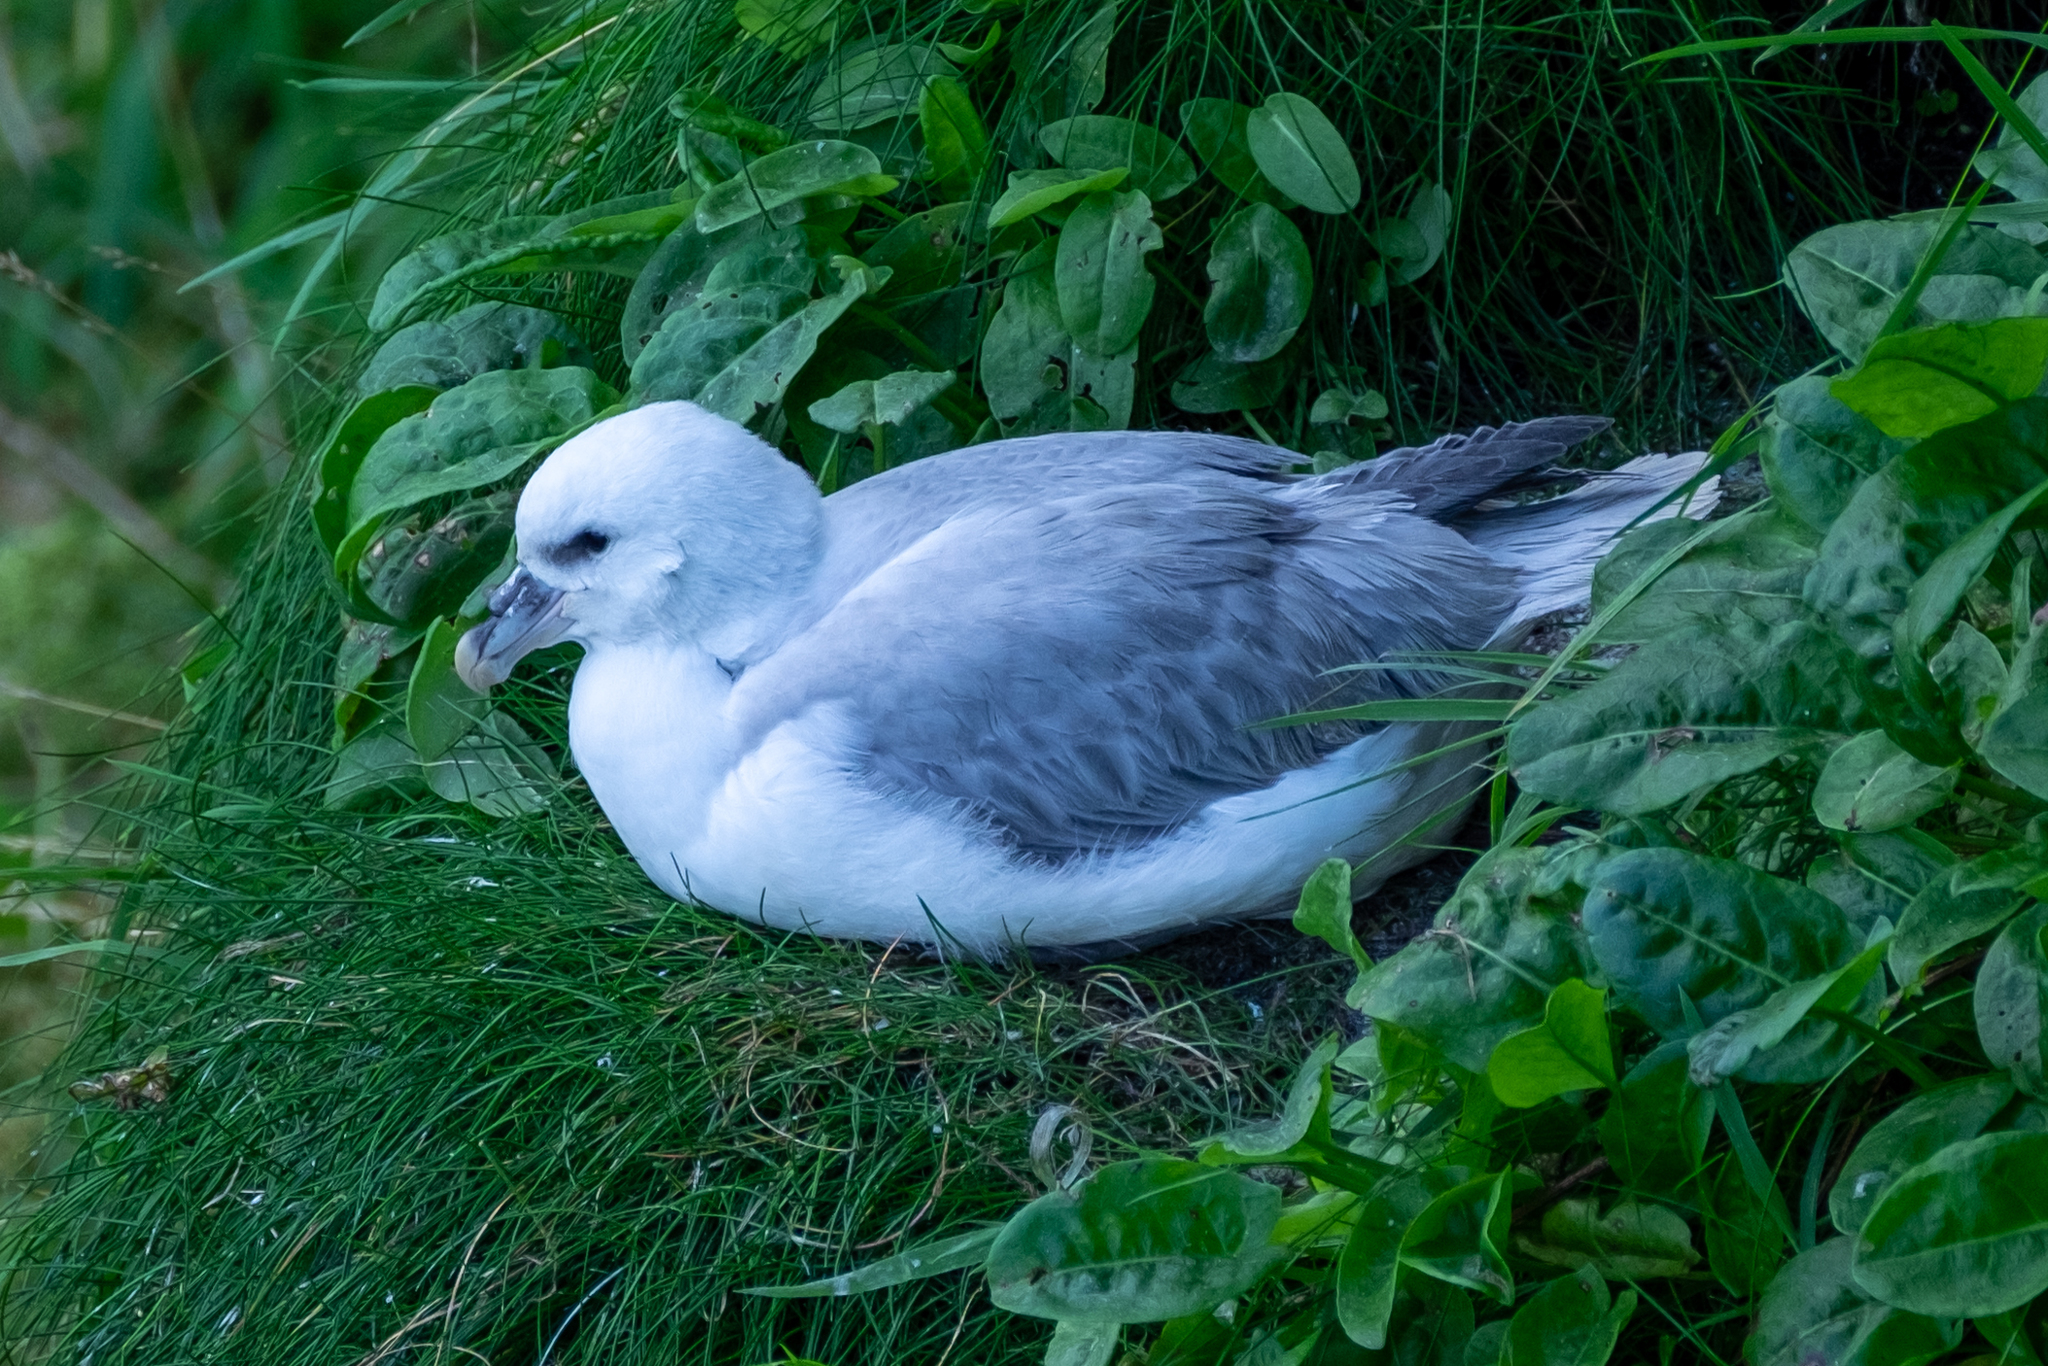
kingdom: Animalia
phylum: Chordata
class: Aves
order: Procellariiformes
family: Procellariidae
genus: Fulmarus
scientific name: Fulmarus glacialis
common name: Northern fulmar
